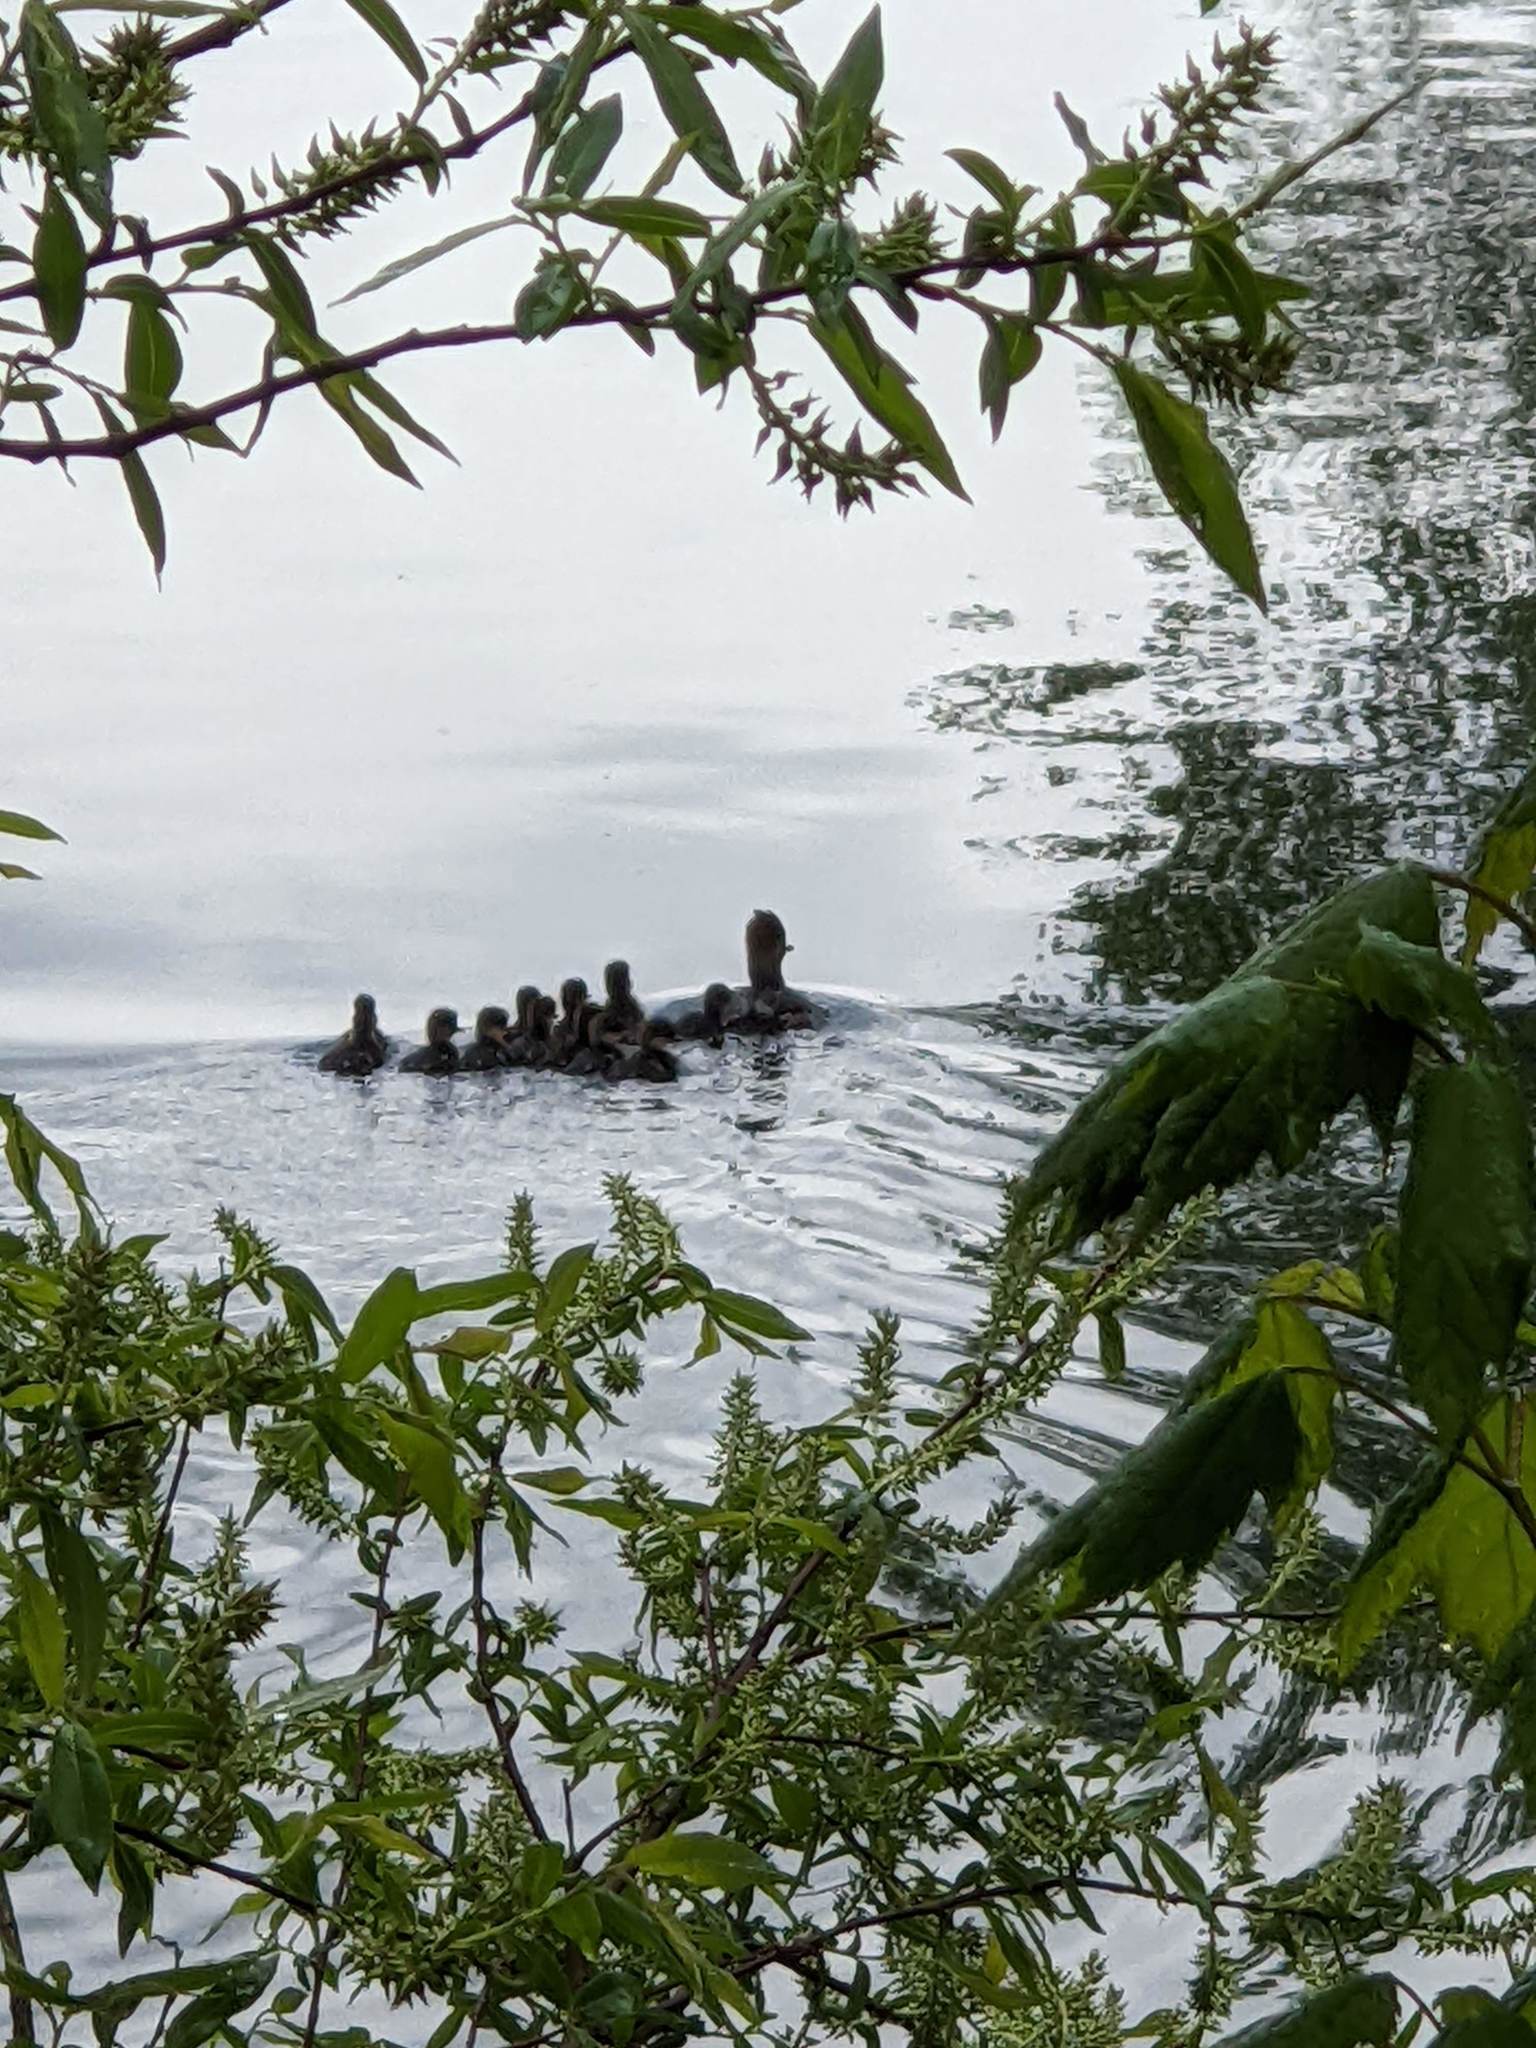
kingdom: Animalia
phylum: Chordata
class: Aves
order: Anseriformes
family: Anatidae
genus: Lophodytes
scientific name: Lophodytes cucullatus
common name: Hooded merganser
